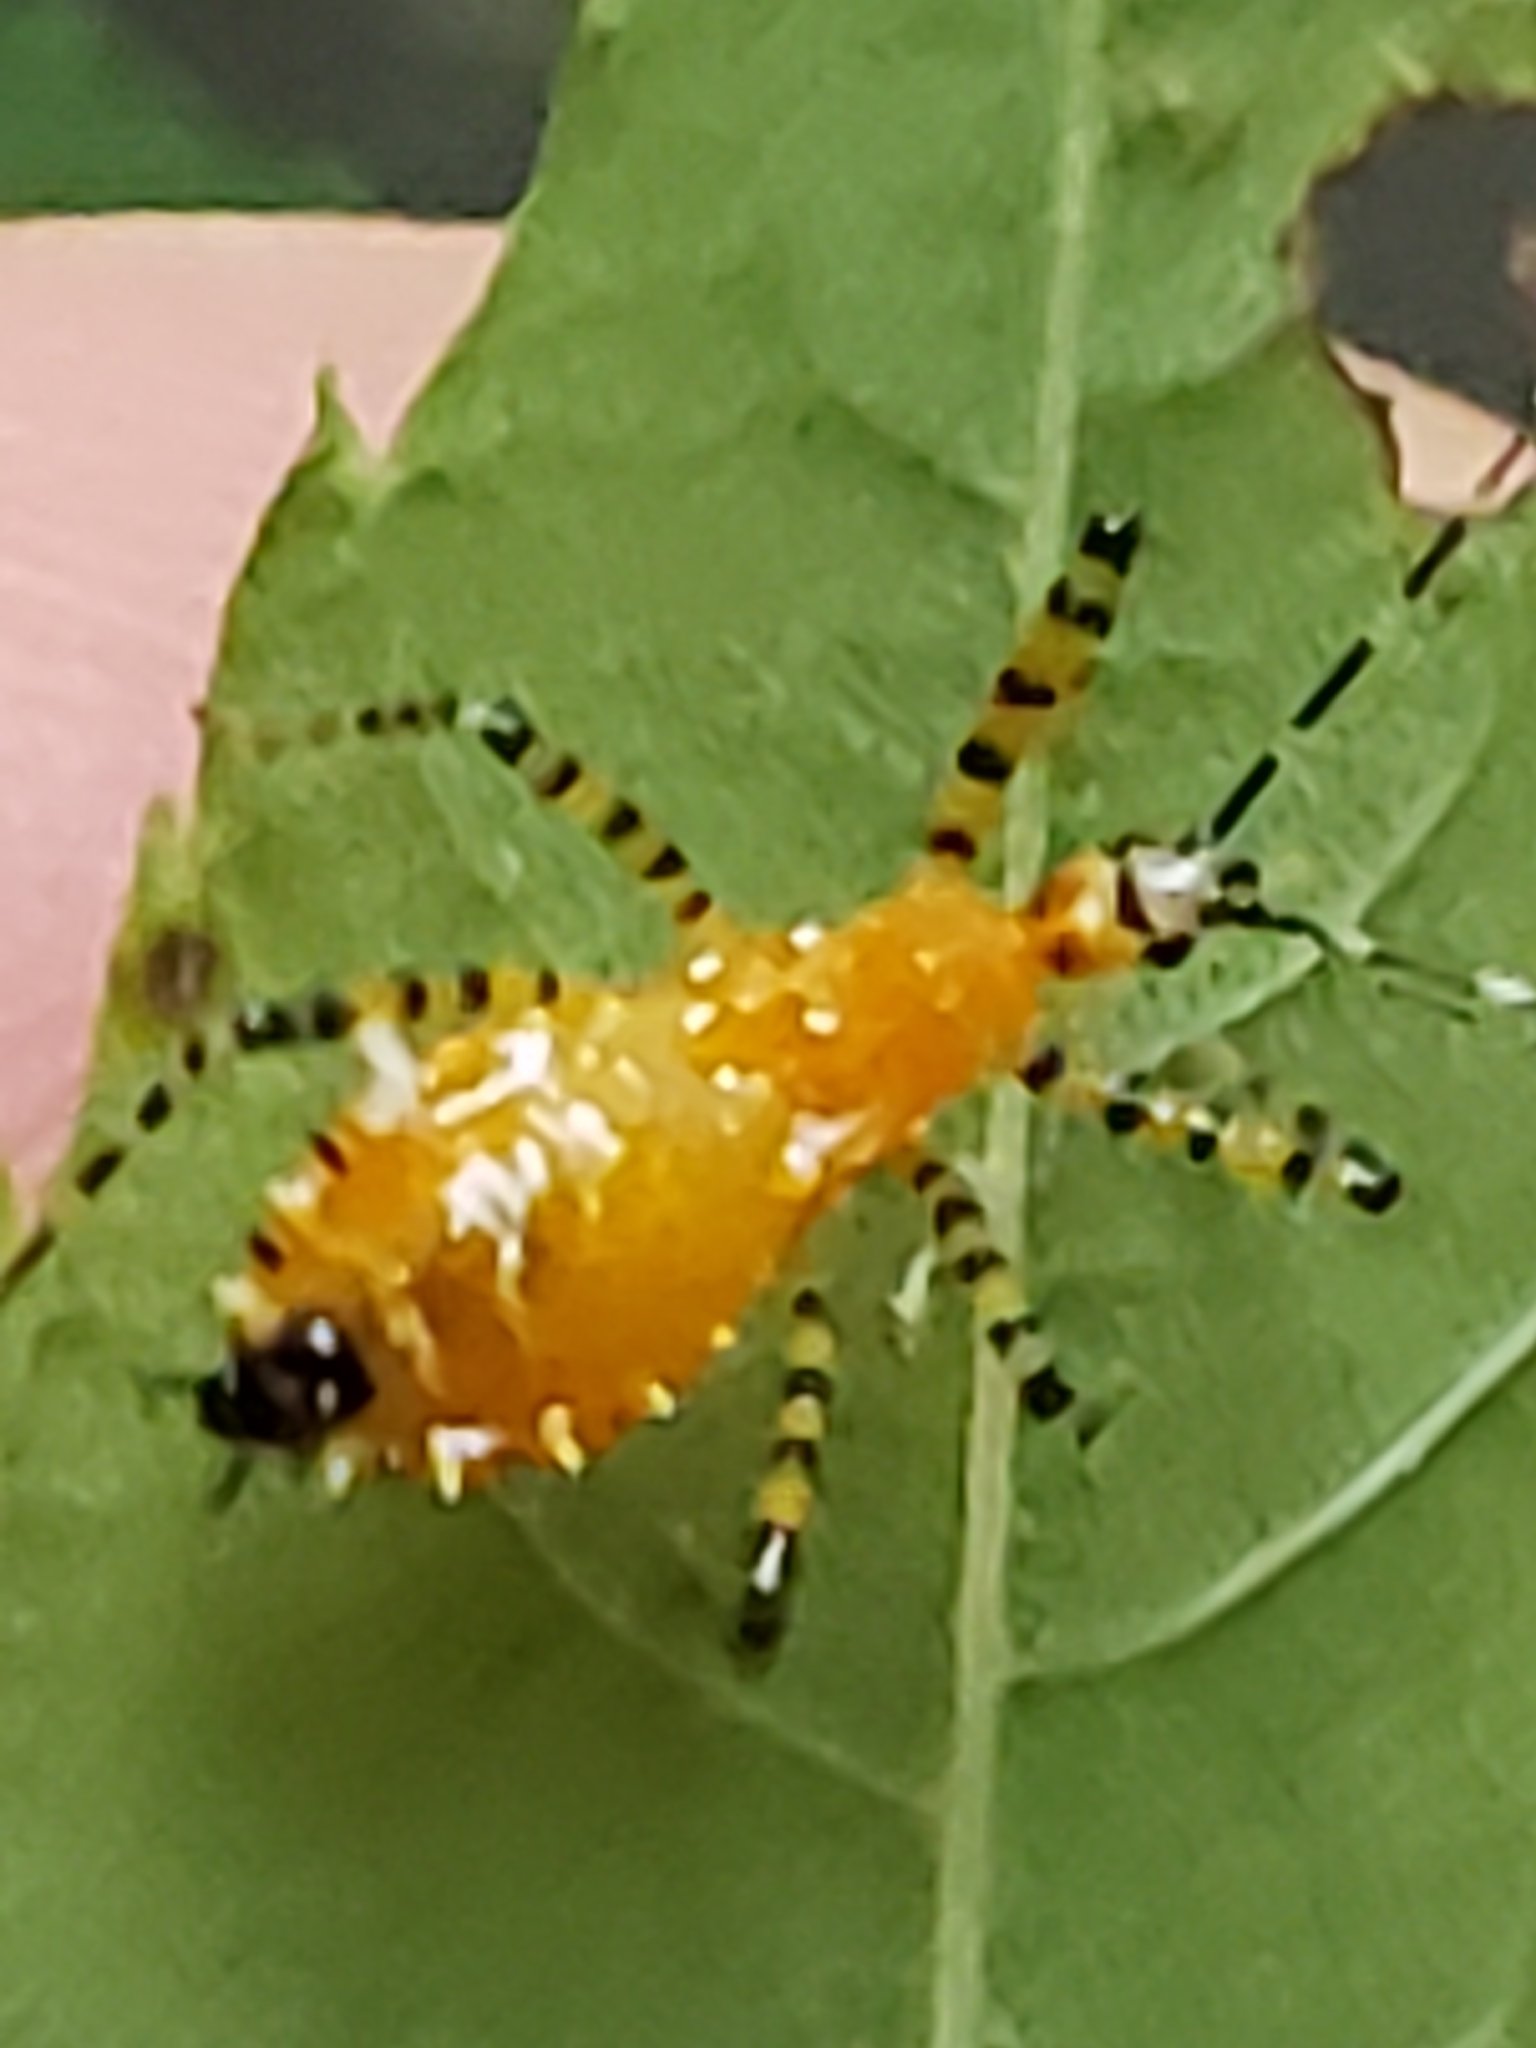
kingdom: Animalia
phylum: Arthropoda
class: Insecta
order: Hemiptera
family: Reduviidae
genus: Pselliopus
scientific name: Pselliopus barberi
